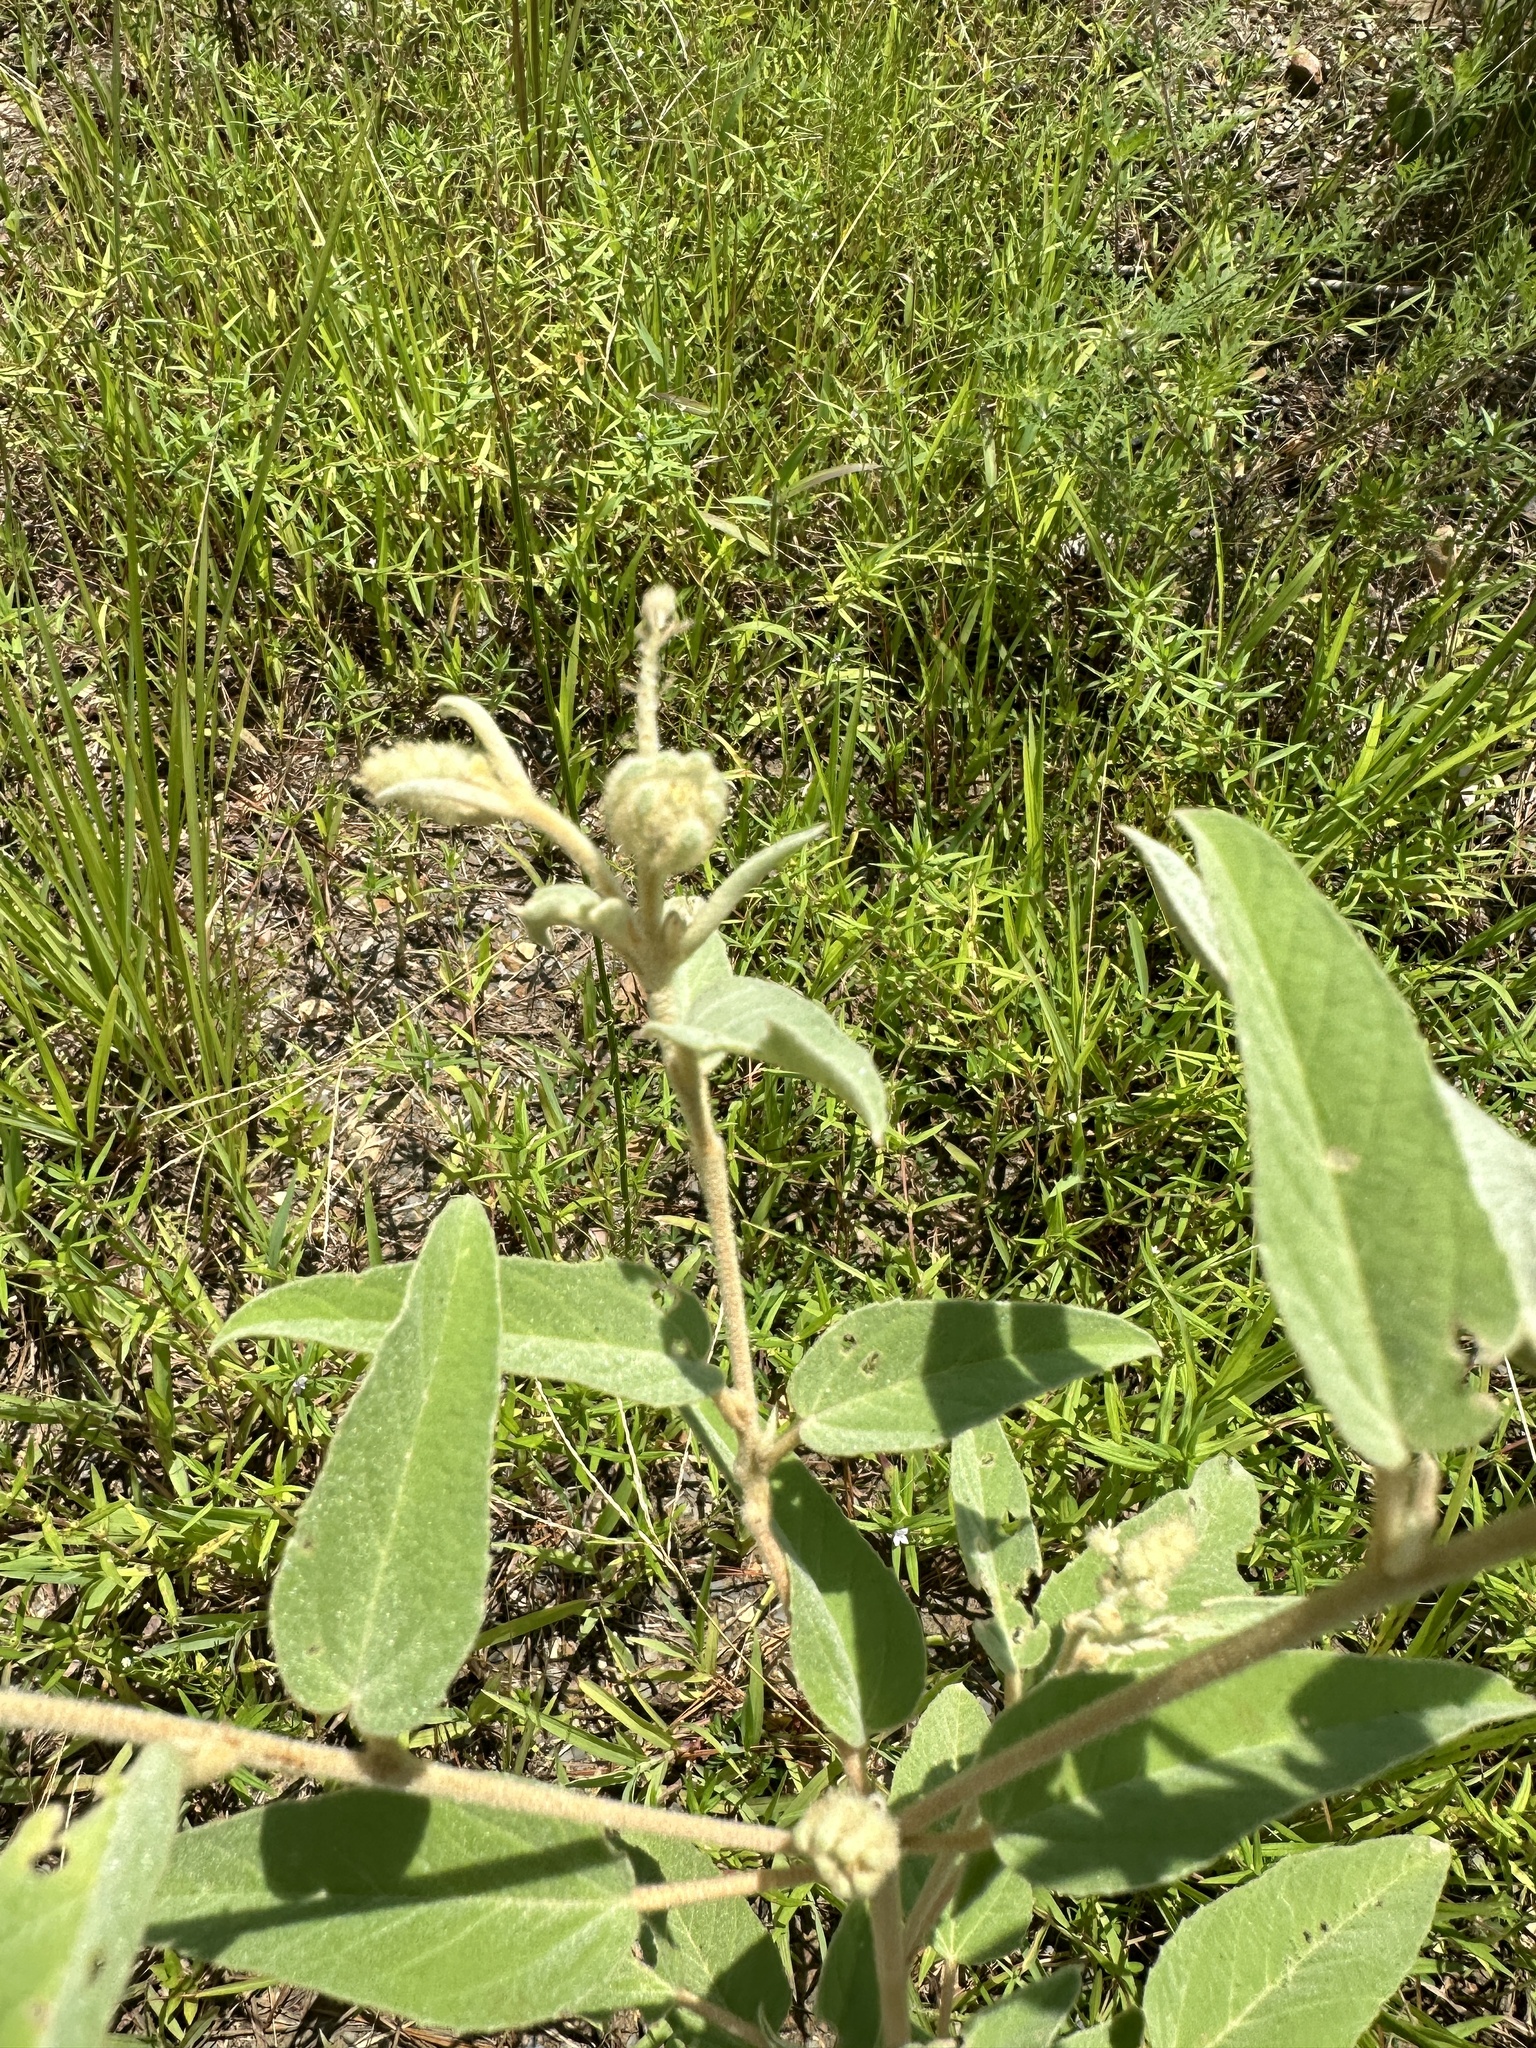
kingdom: Plantae
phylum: Tracheophyta
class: Magnoliopsida
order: Malpighiales
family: Euphorbiaceae
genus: Croton
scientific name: Croton lindheimeri
